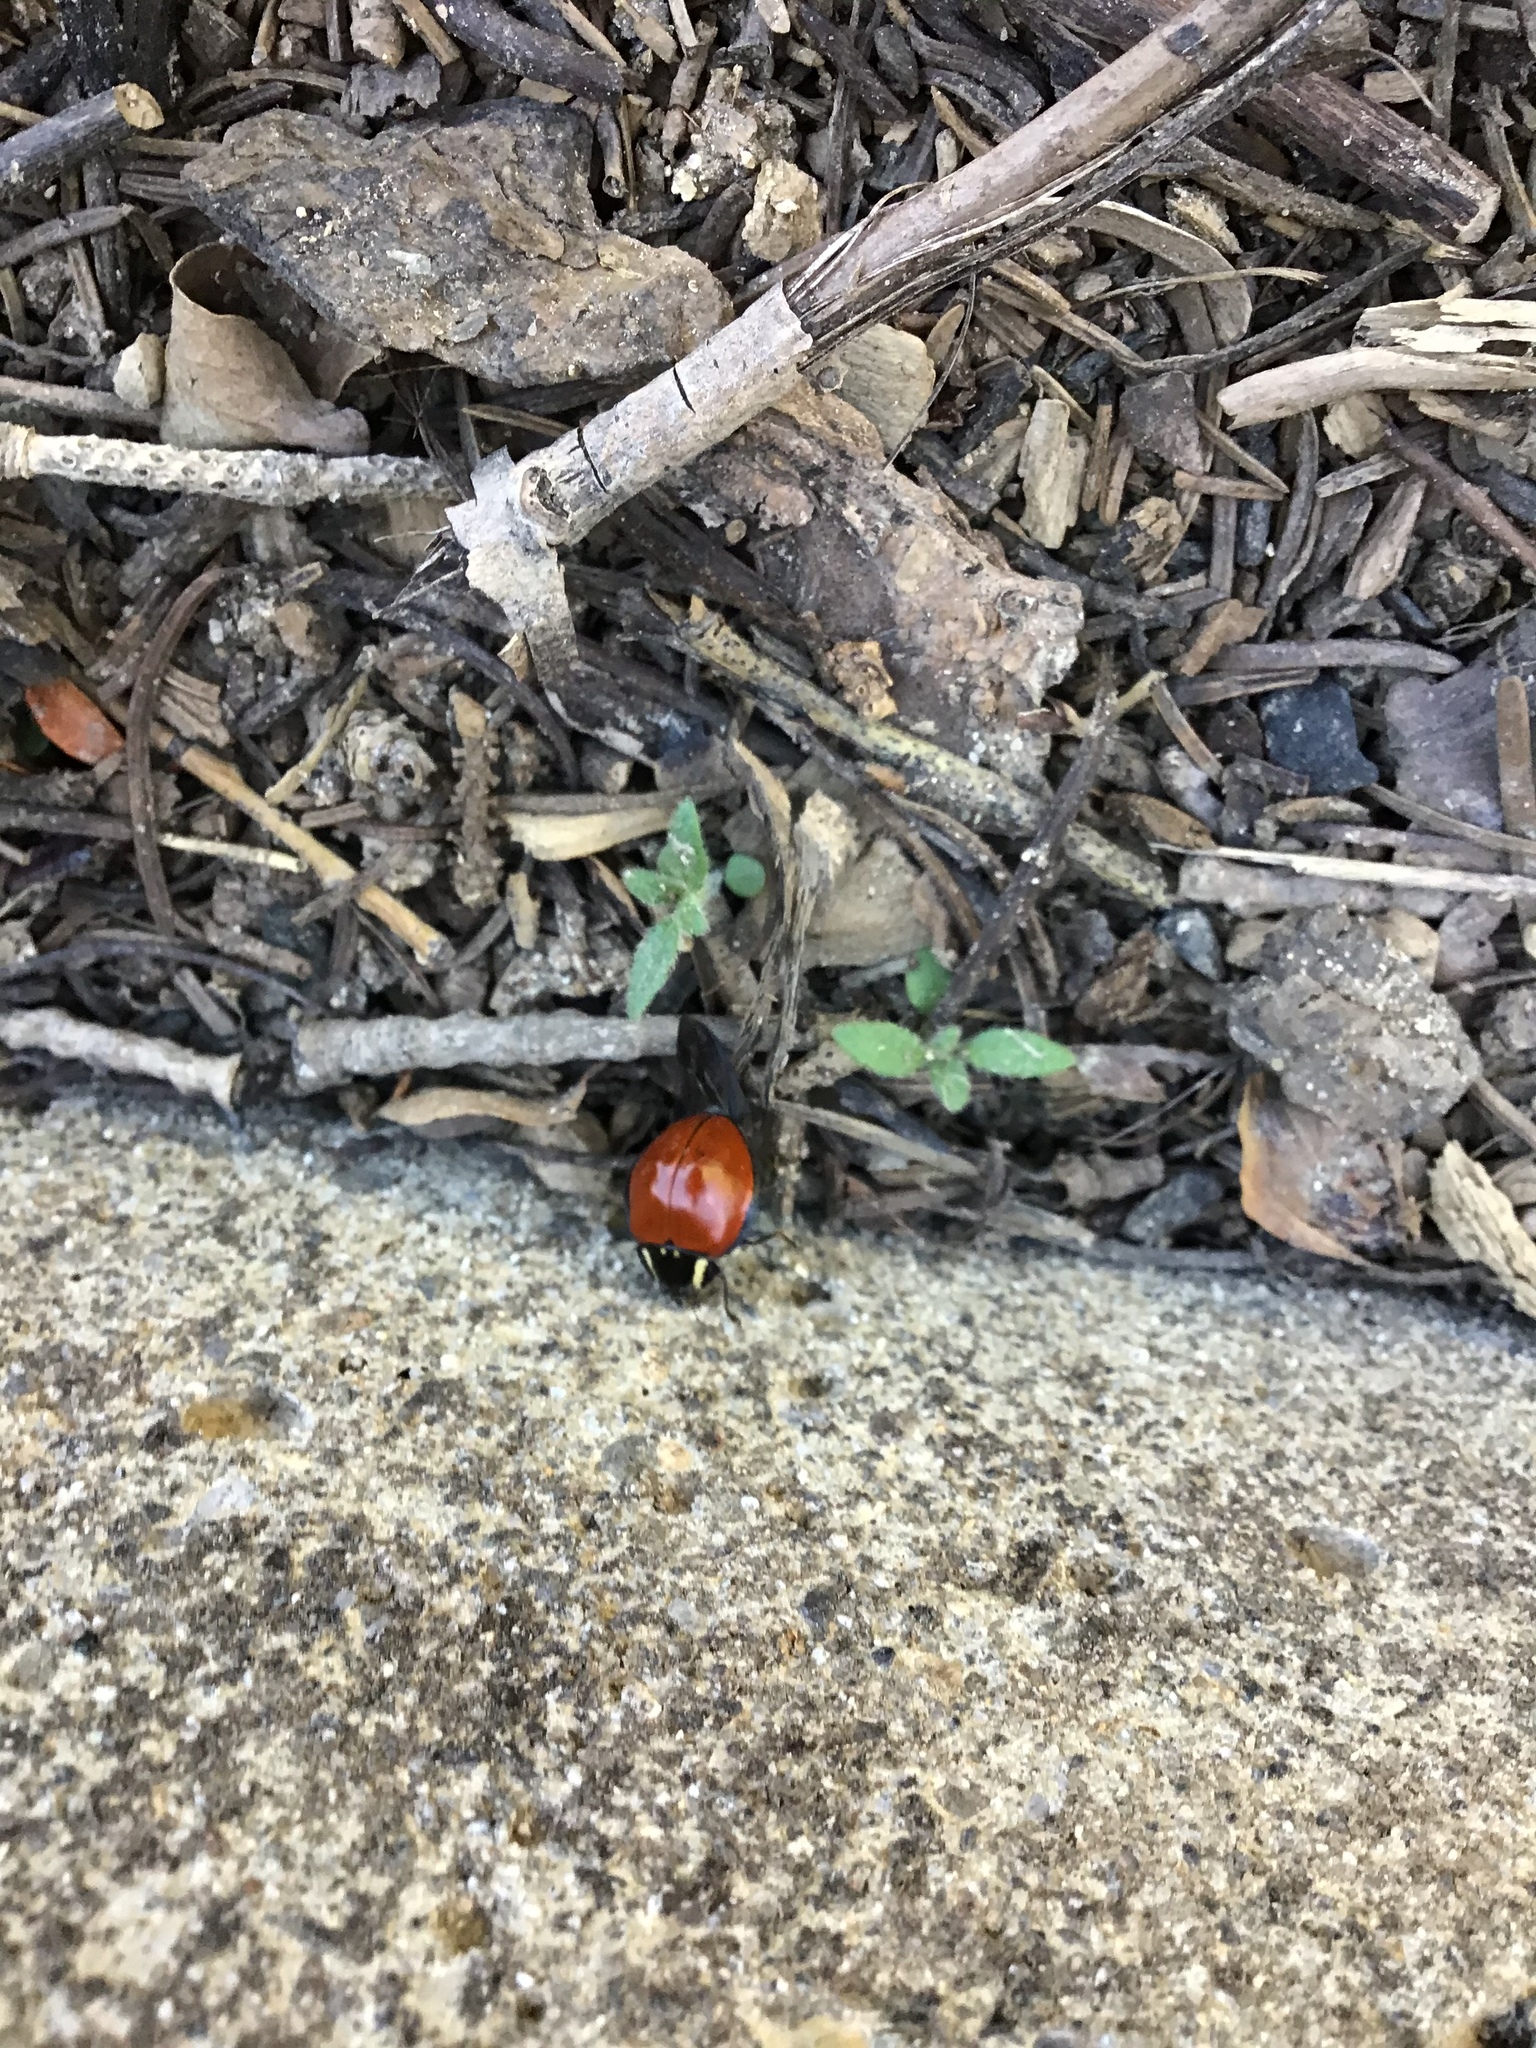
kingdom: Animalia
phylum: Arthropoda
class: Insecta
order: Coleoptera
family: Coccinellidae
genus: Anatis
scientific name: Anatis lecontei
